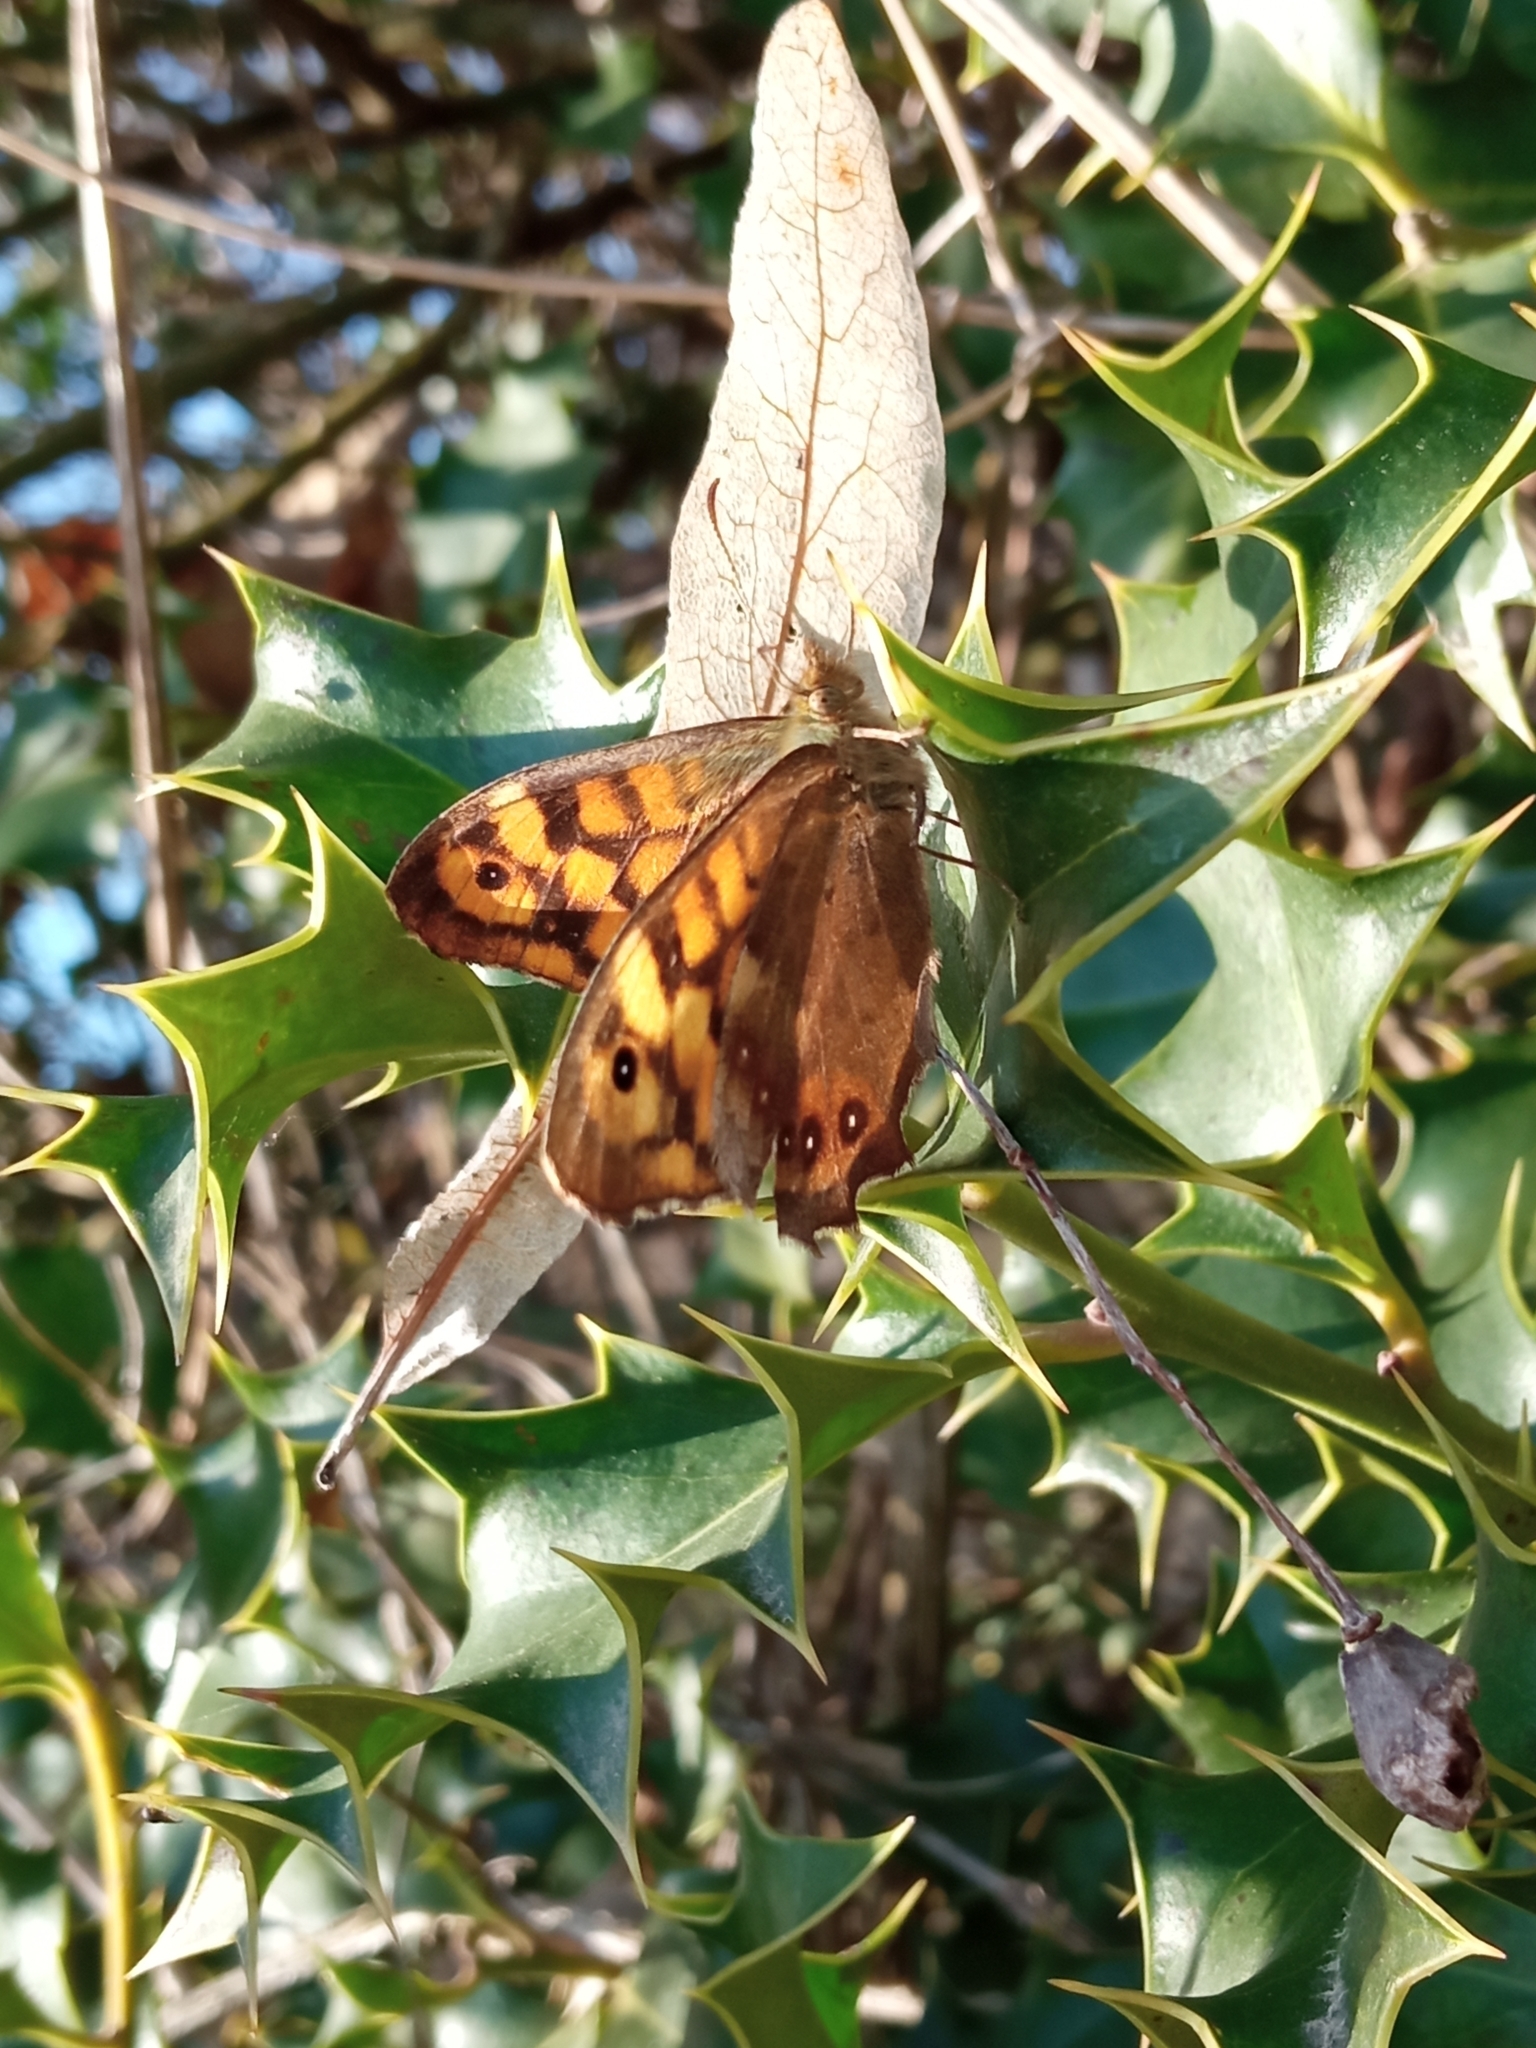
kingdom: Animalia
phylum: Arthropoda
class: Insecta
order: Lepidoptera
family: Nymphalidae
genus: Pararge
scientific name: Pararge aegeria
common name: Speckled wood
